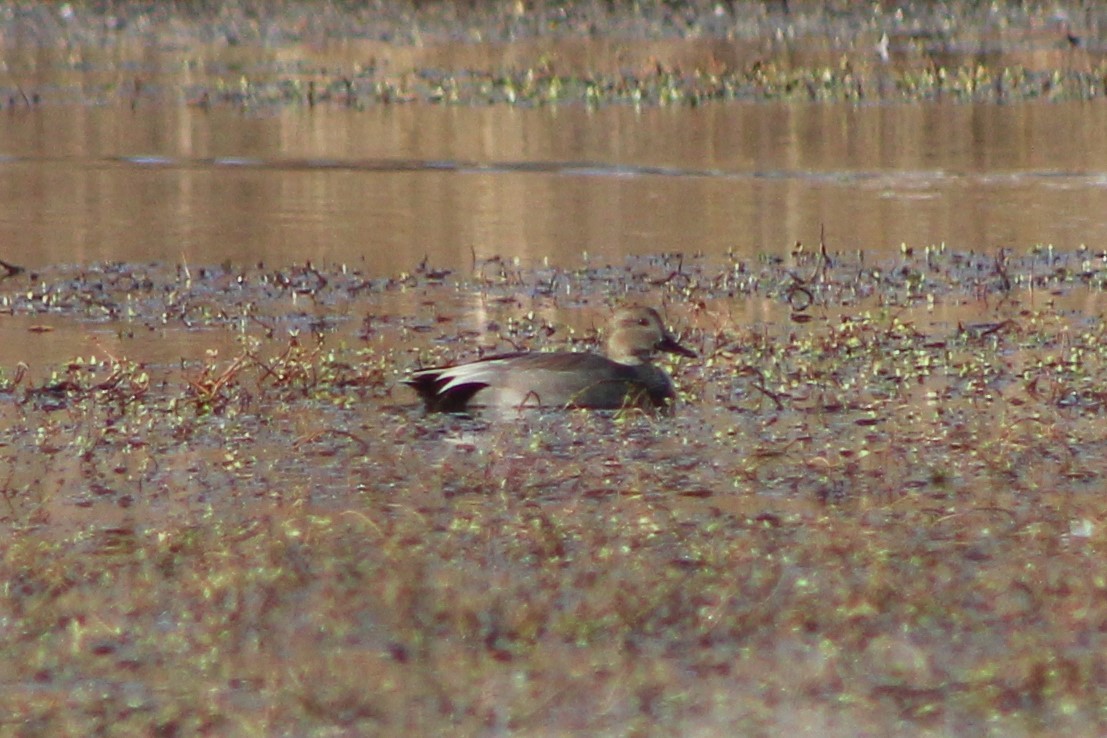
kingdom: Animalia
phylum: Chordata
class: Aves
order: Anseriformes
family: Anatidae
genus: Mareca
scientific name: Mareca strepera
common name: Gadwall
